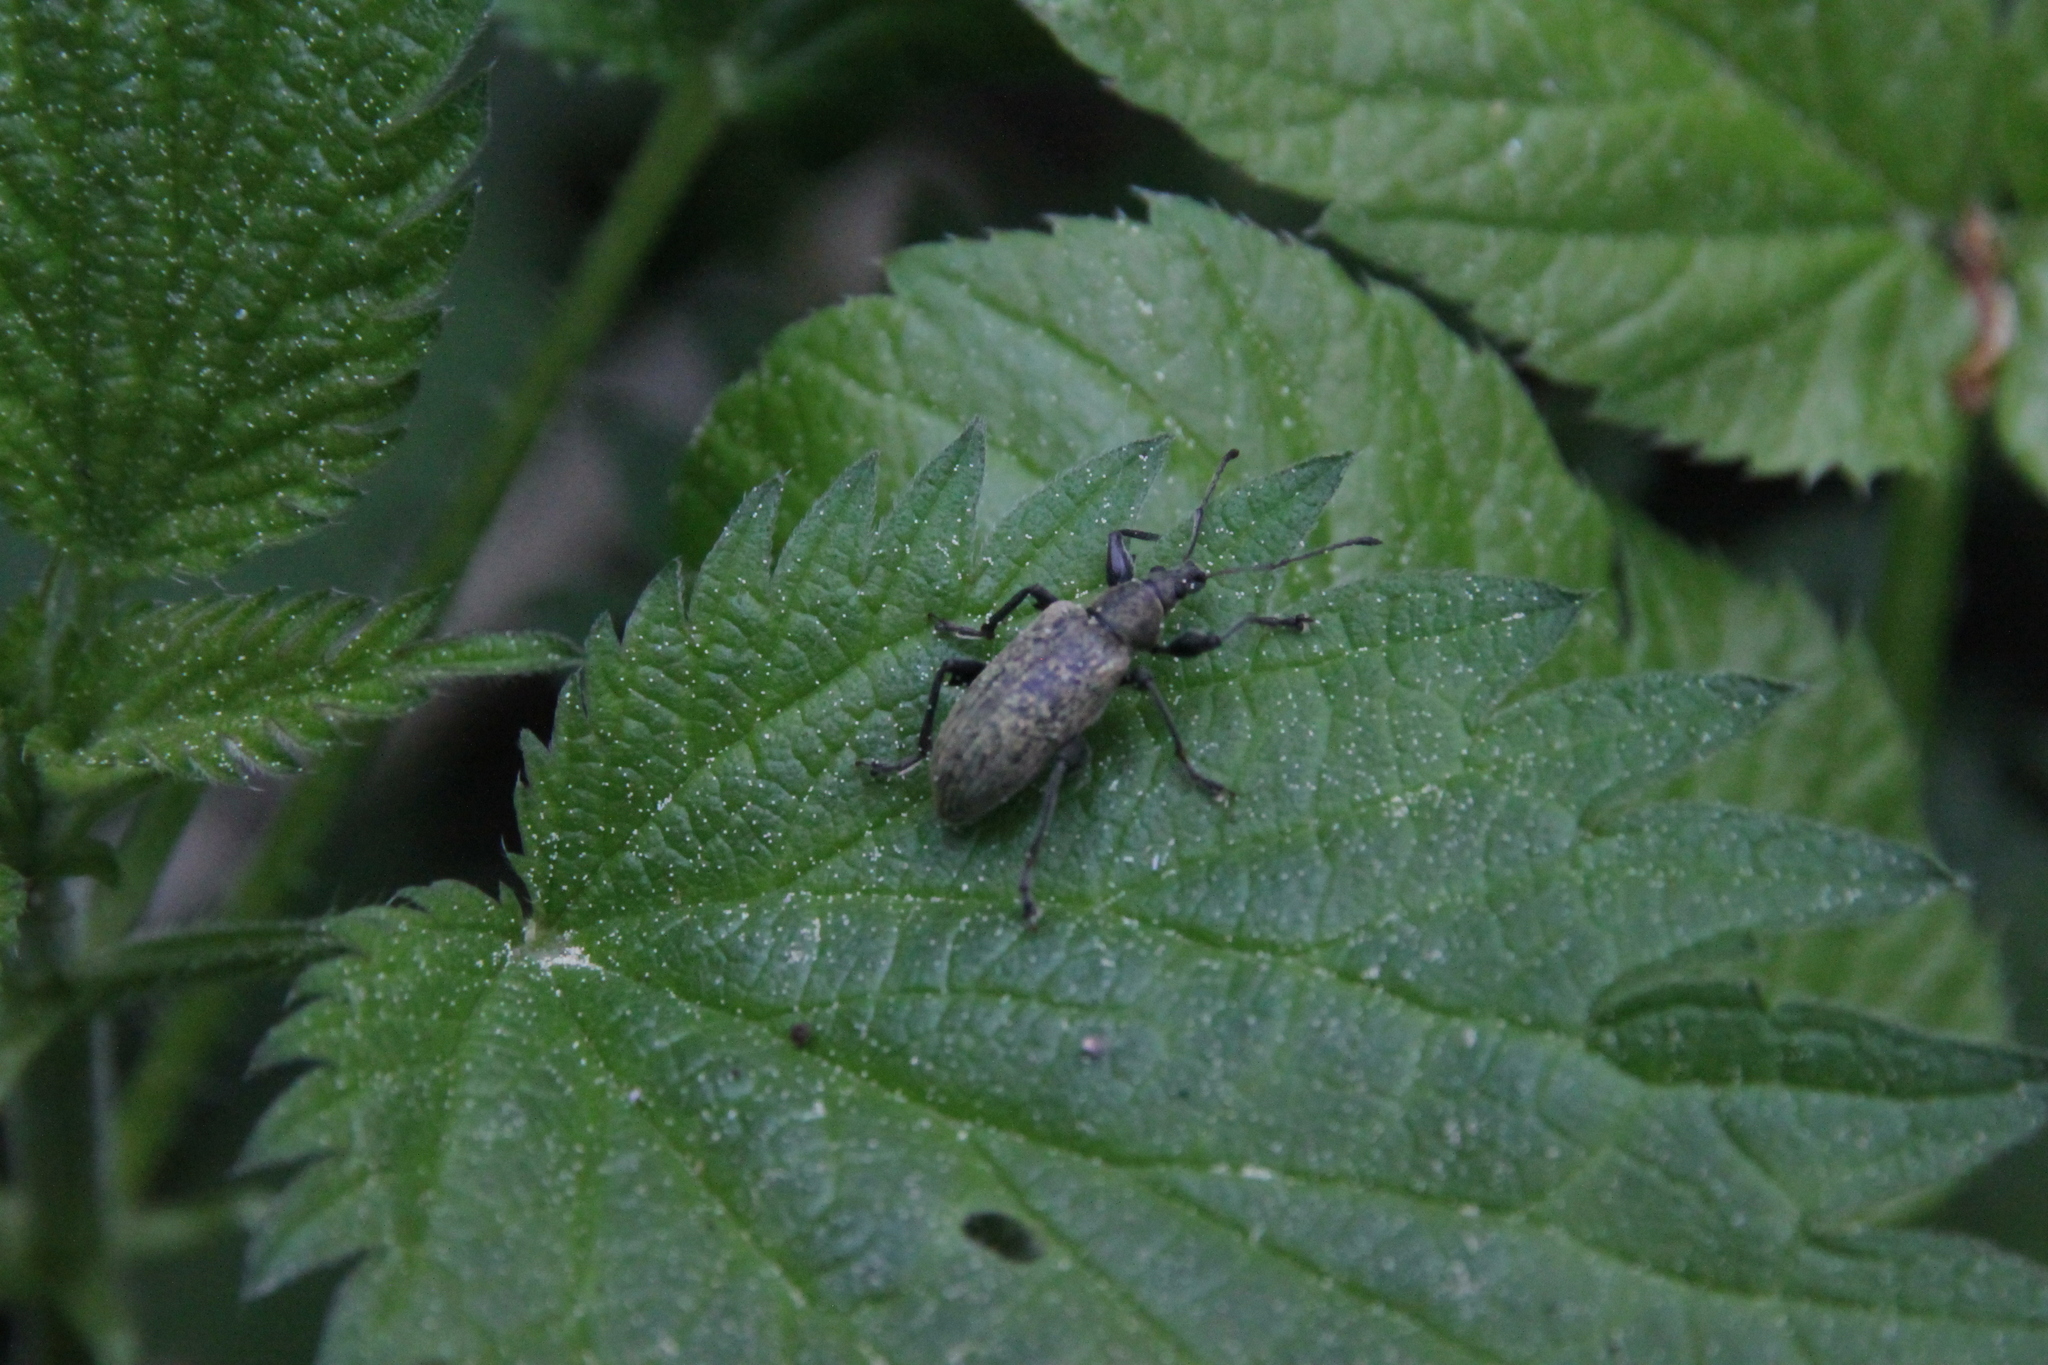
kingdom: Animalia
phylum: Arthropoda
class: Insecta
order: Coleoptera
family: Curculionidae
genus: Phyllobius
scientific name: Phyllobius pomaceus
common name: Green nettle weevil
